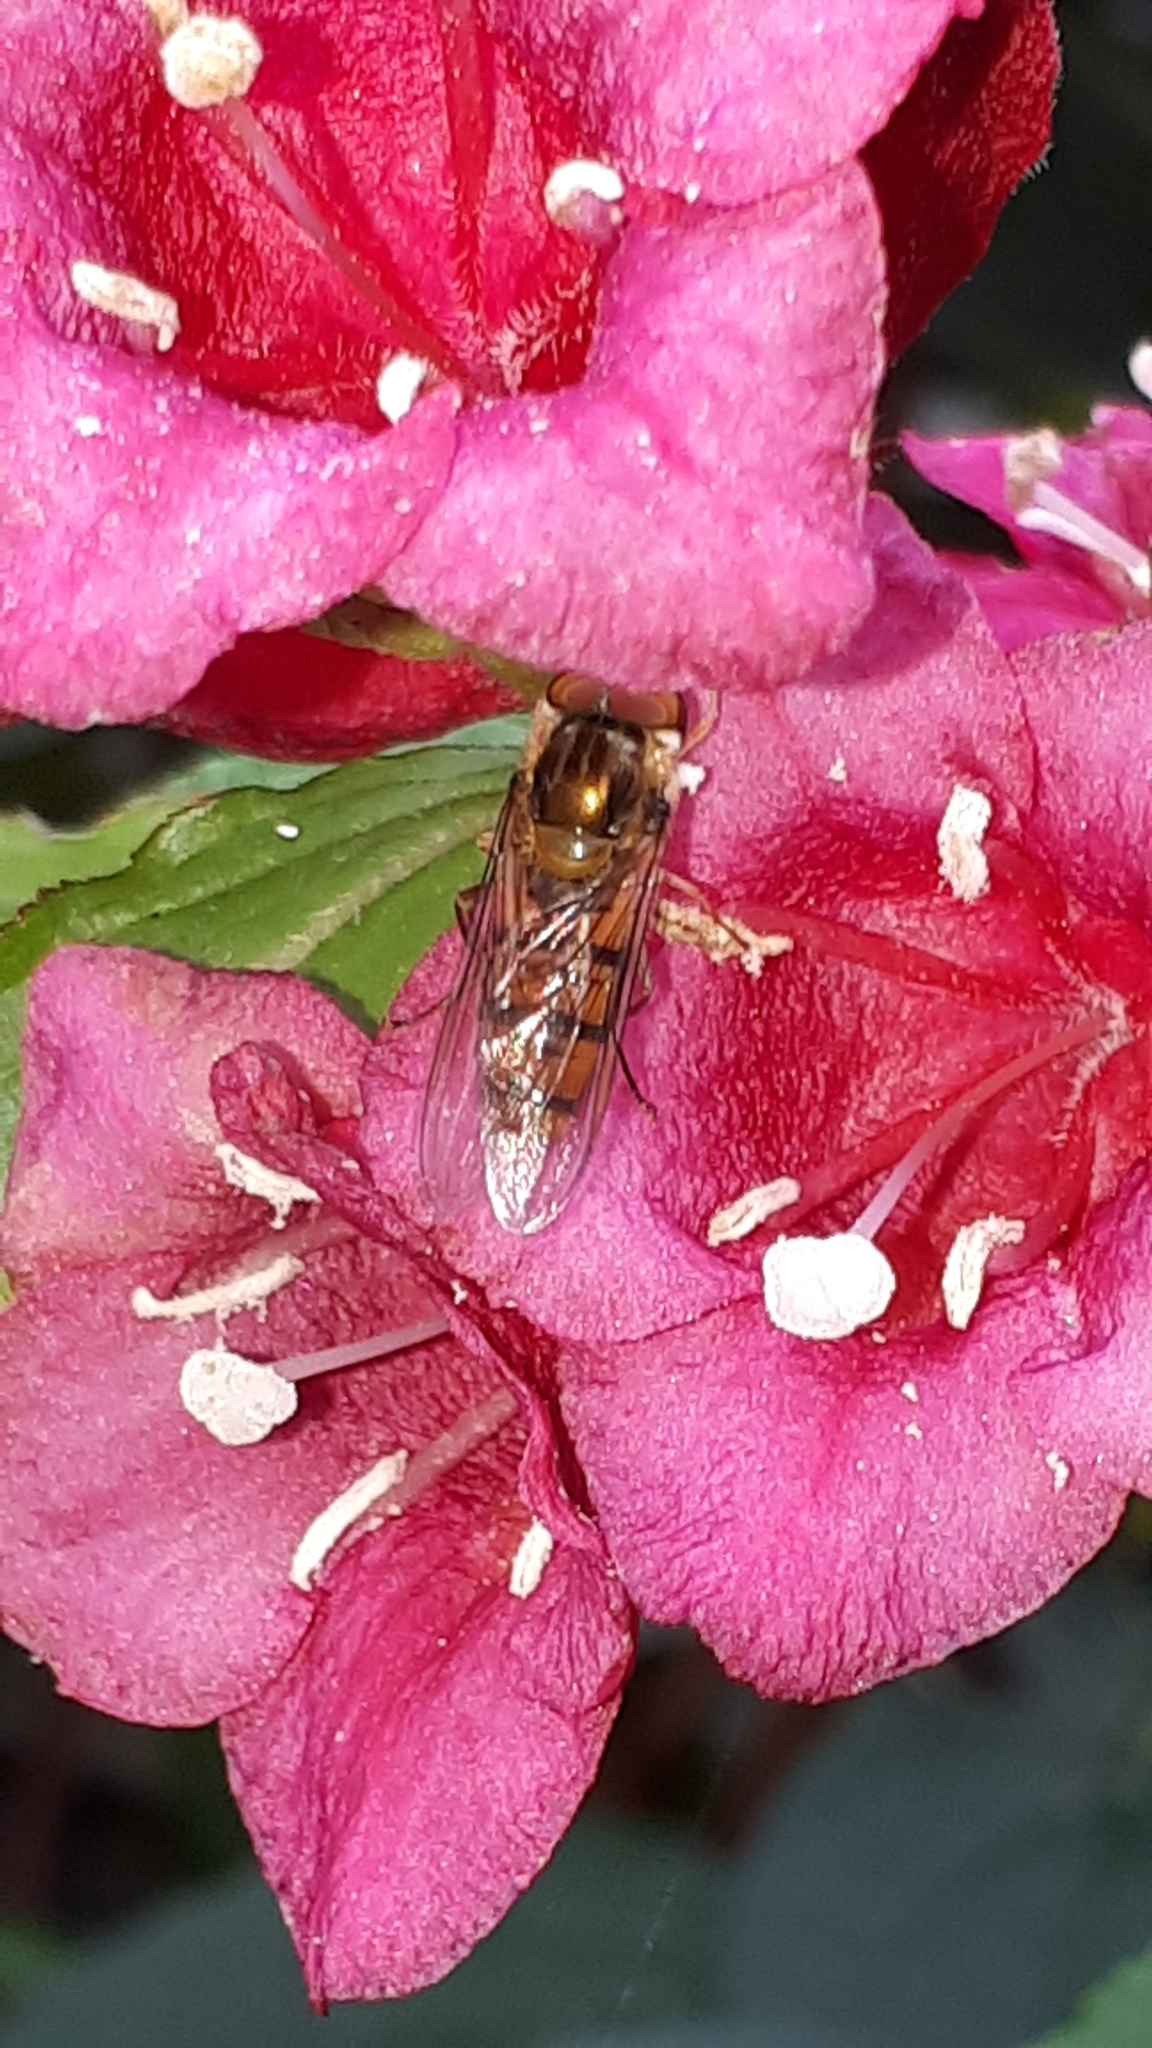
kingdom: Animalia
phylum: Arthropoda
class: Insecta
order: Diptera
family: Syrphidae
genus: Episyrphus
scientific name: Episyrphus balteatus
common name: Marmalade hoverfly
